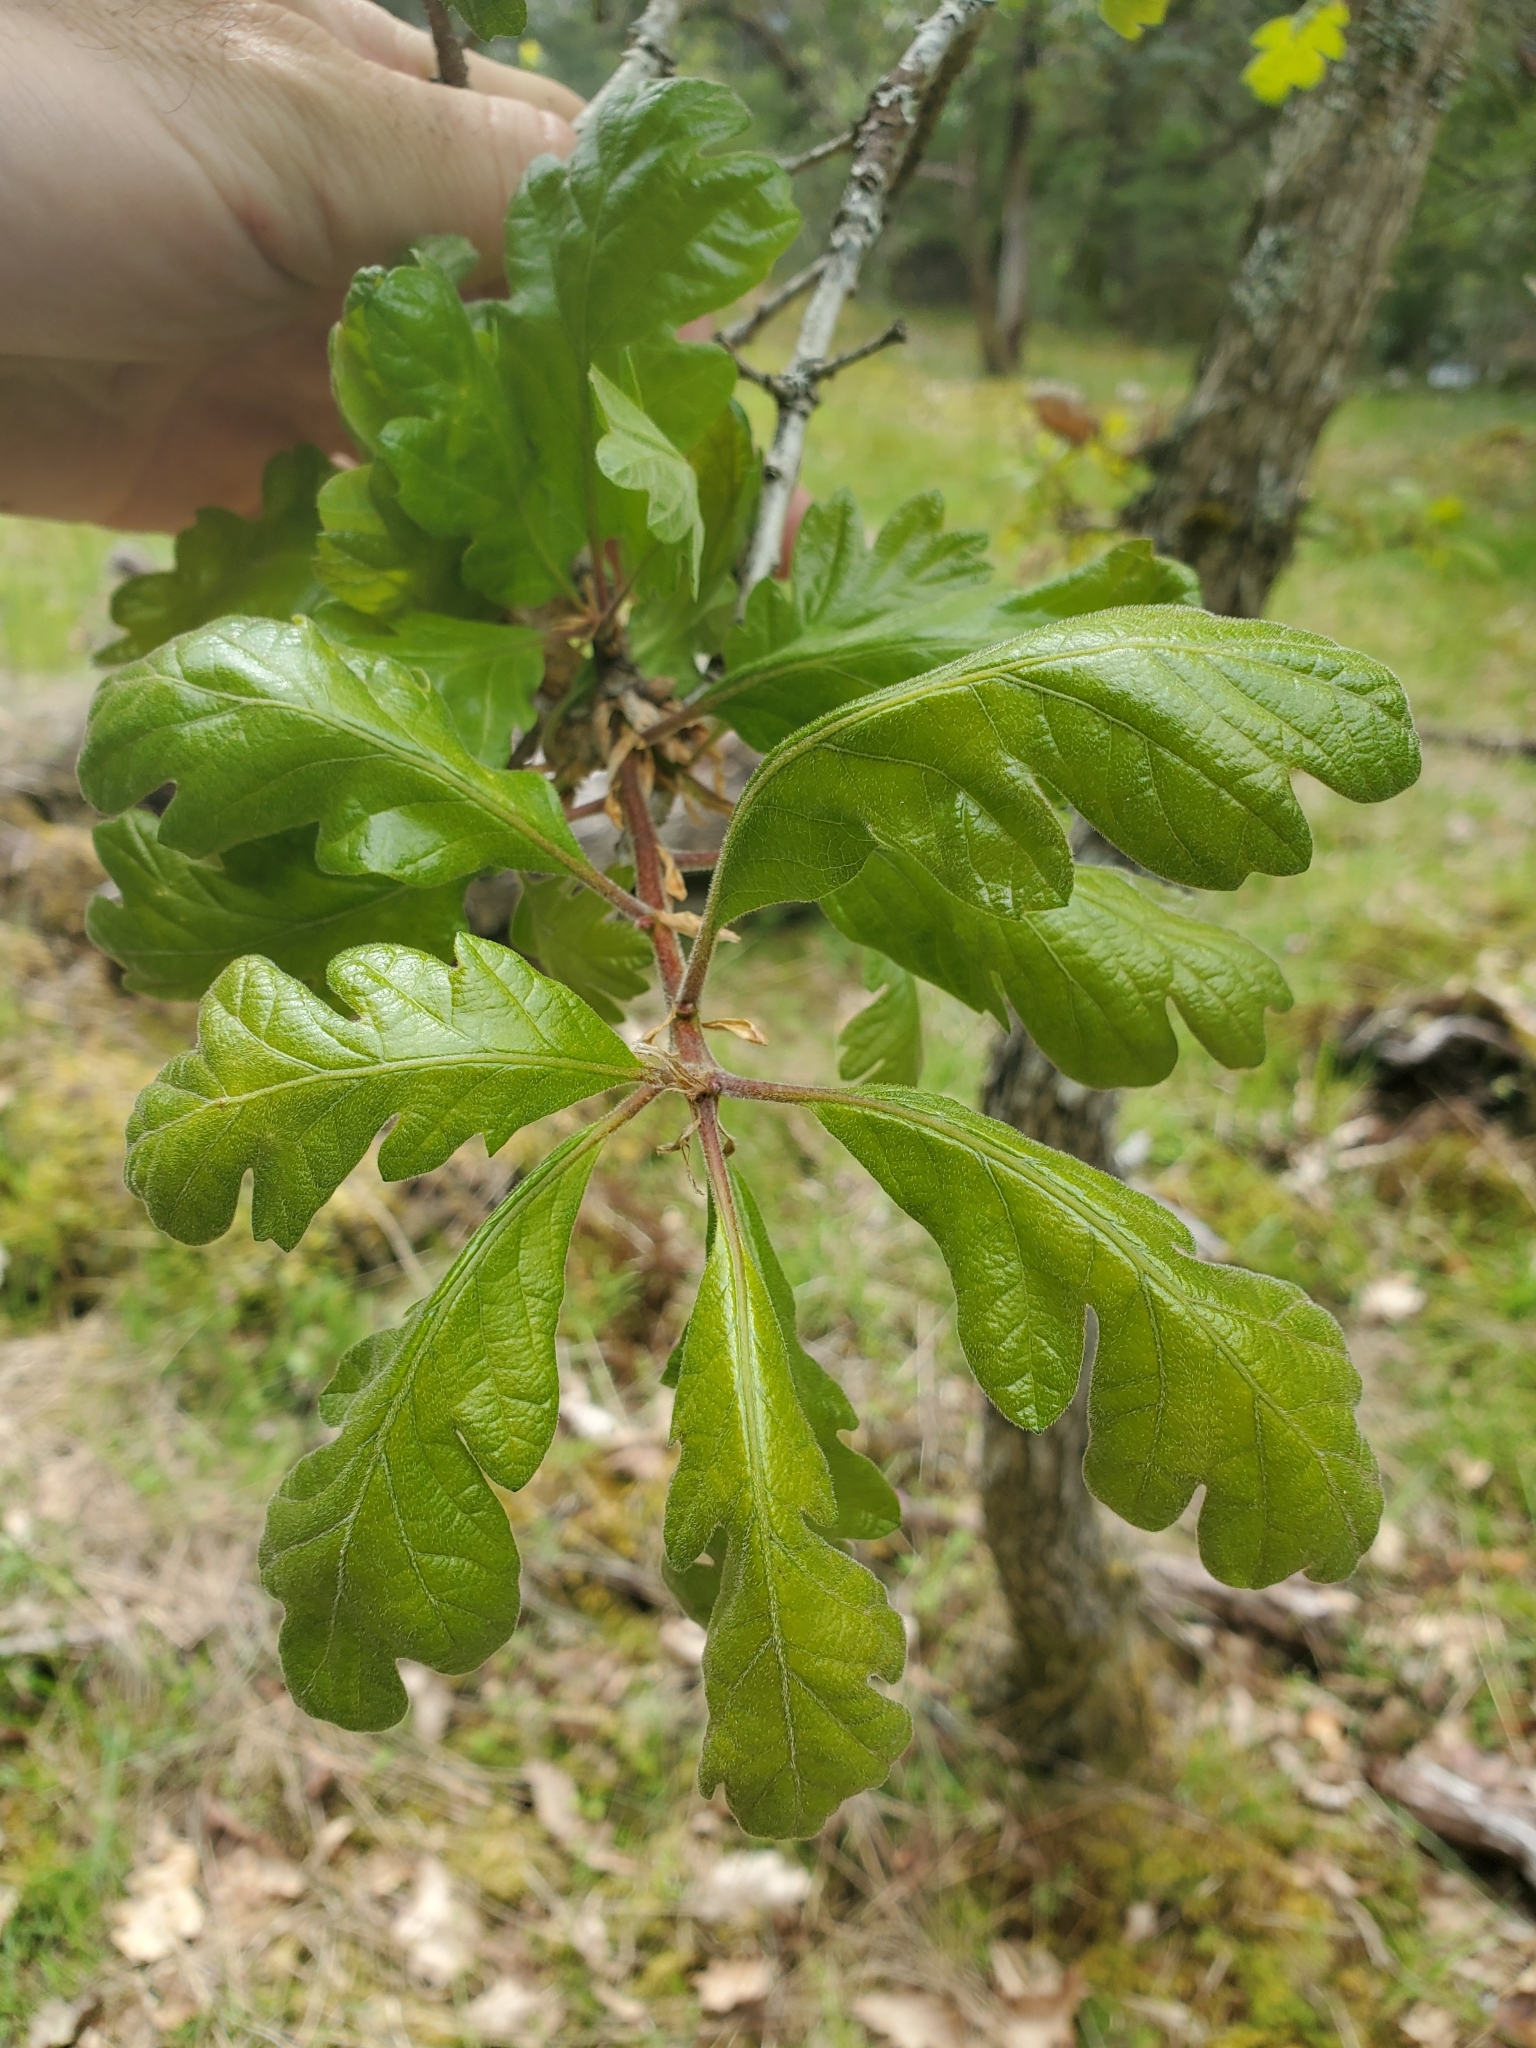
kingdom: Plantae
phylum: Tracheophyta
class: Magnoliopsida
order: Fagales
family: Fagaceae
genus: Quercus
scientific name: Quercus garryana
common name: Garry oak
